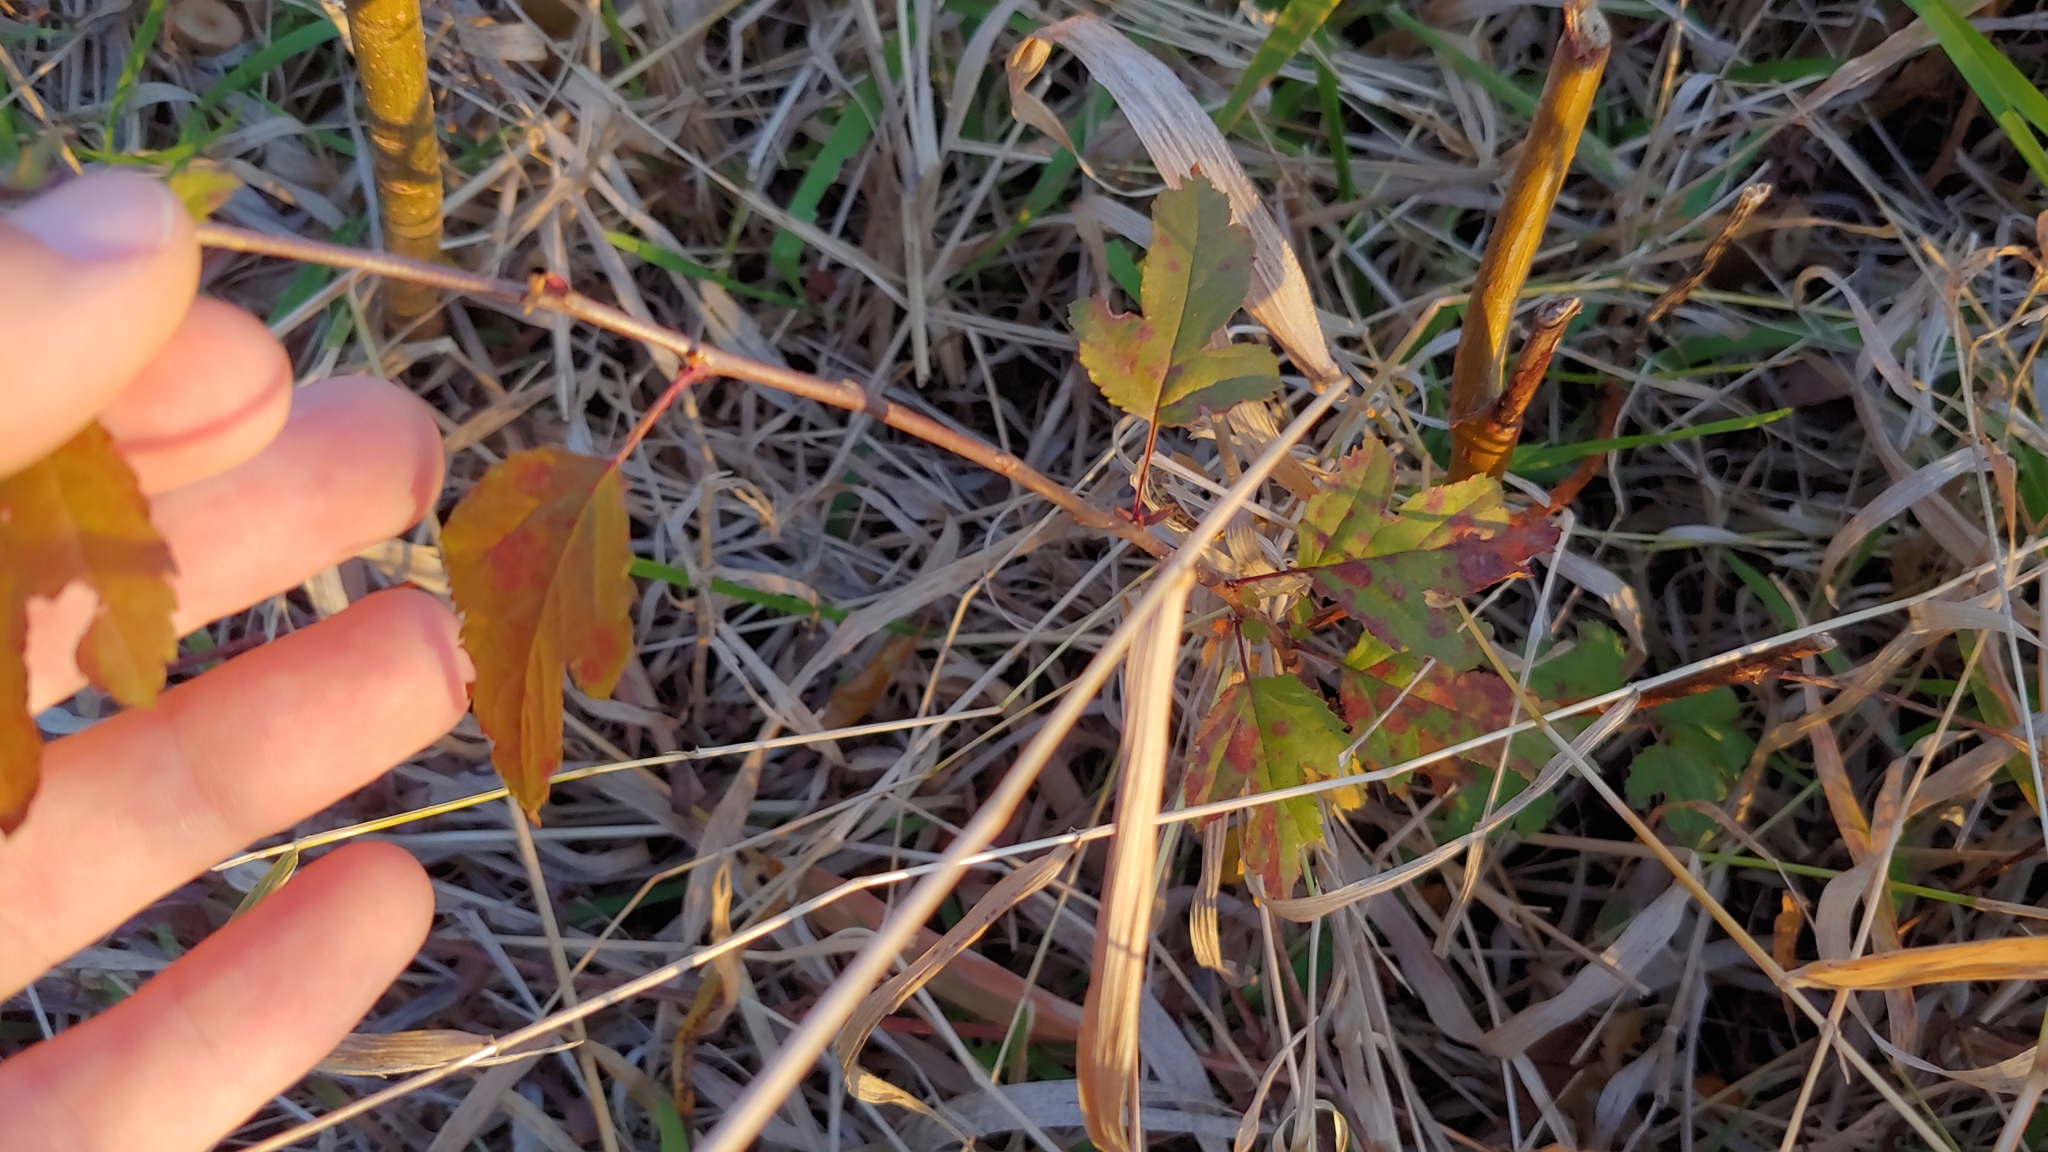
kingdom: Plantae
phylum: Tracheophyta
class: Magnoliopsida
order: Rosales
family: Rosaceae
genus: Malus
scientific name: Malus toringo
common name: Japanese crabapple
